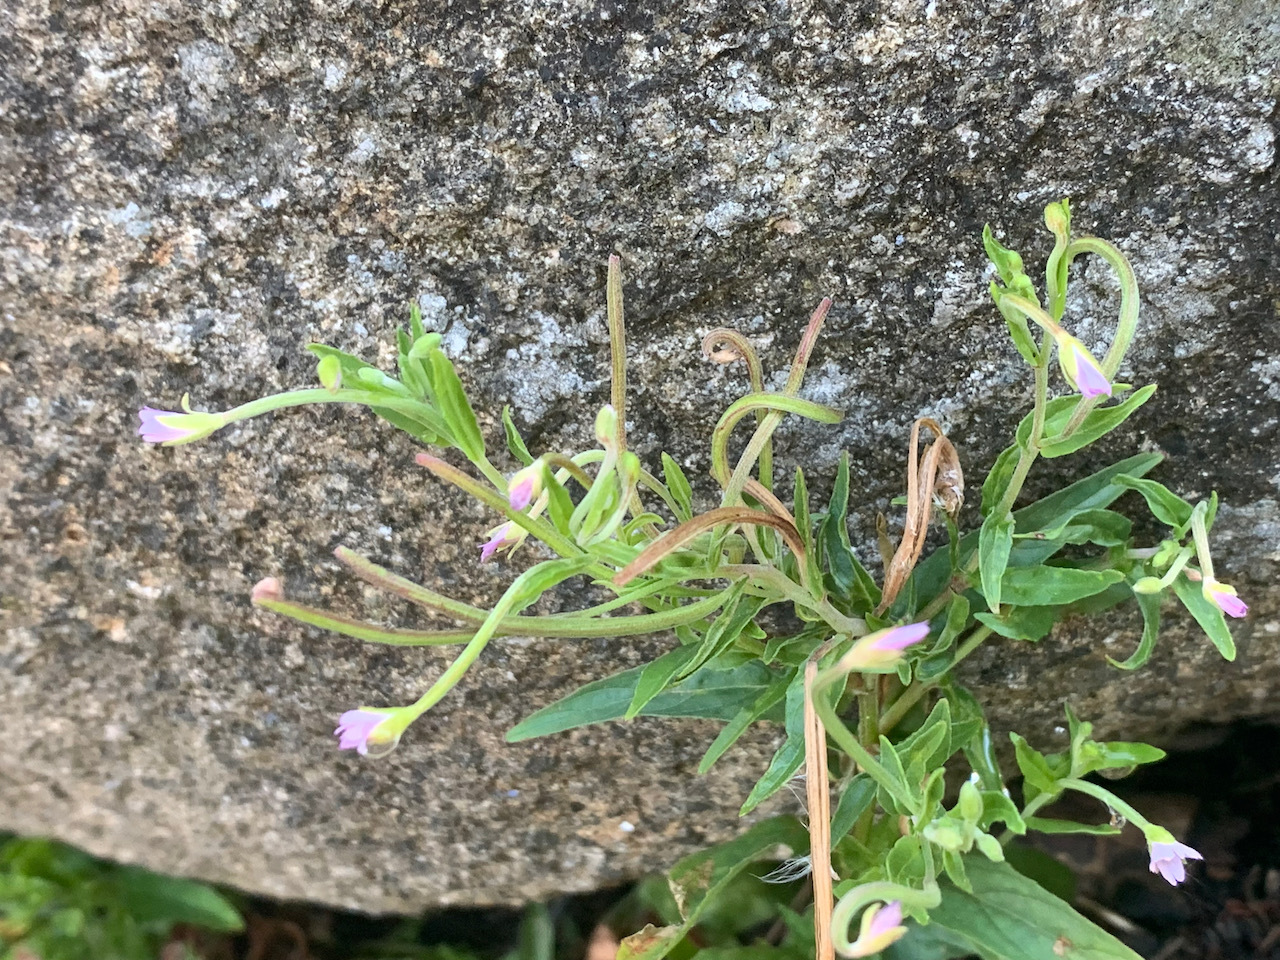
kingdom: Plantae
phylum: Tracheophyta
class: Magnoliopsida
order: Myrtales
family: Onagraceae
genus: Epilobium
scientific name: Epilobium ciliatum
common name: American willowherb
